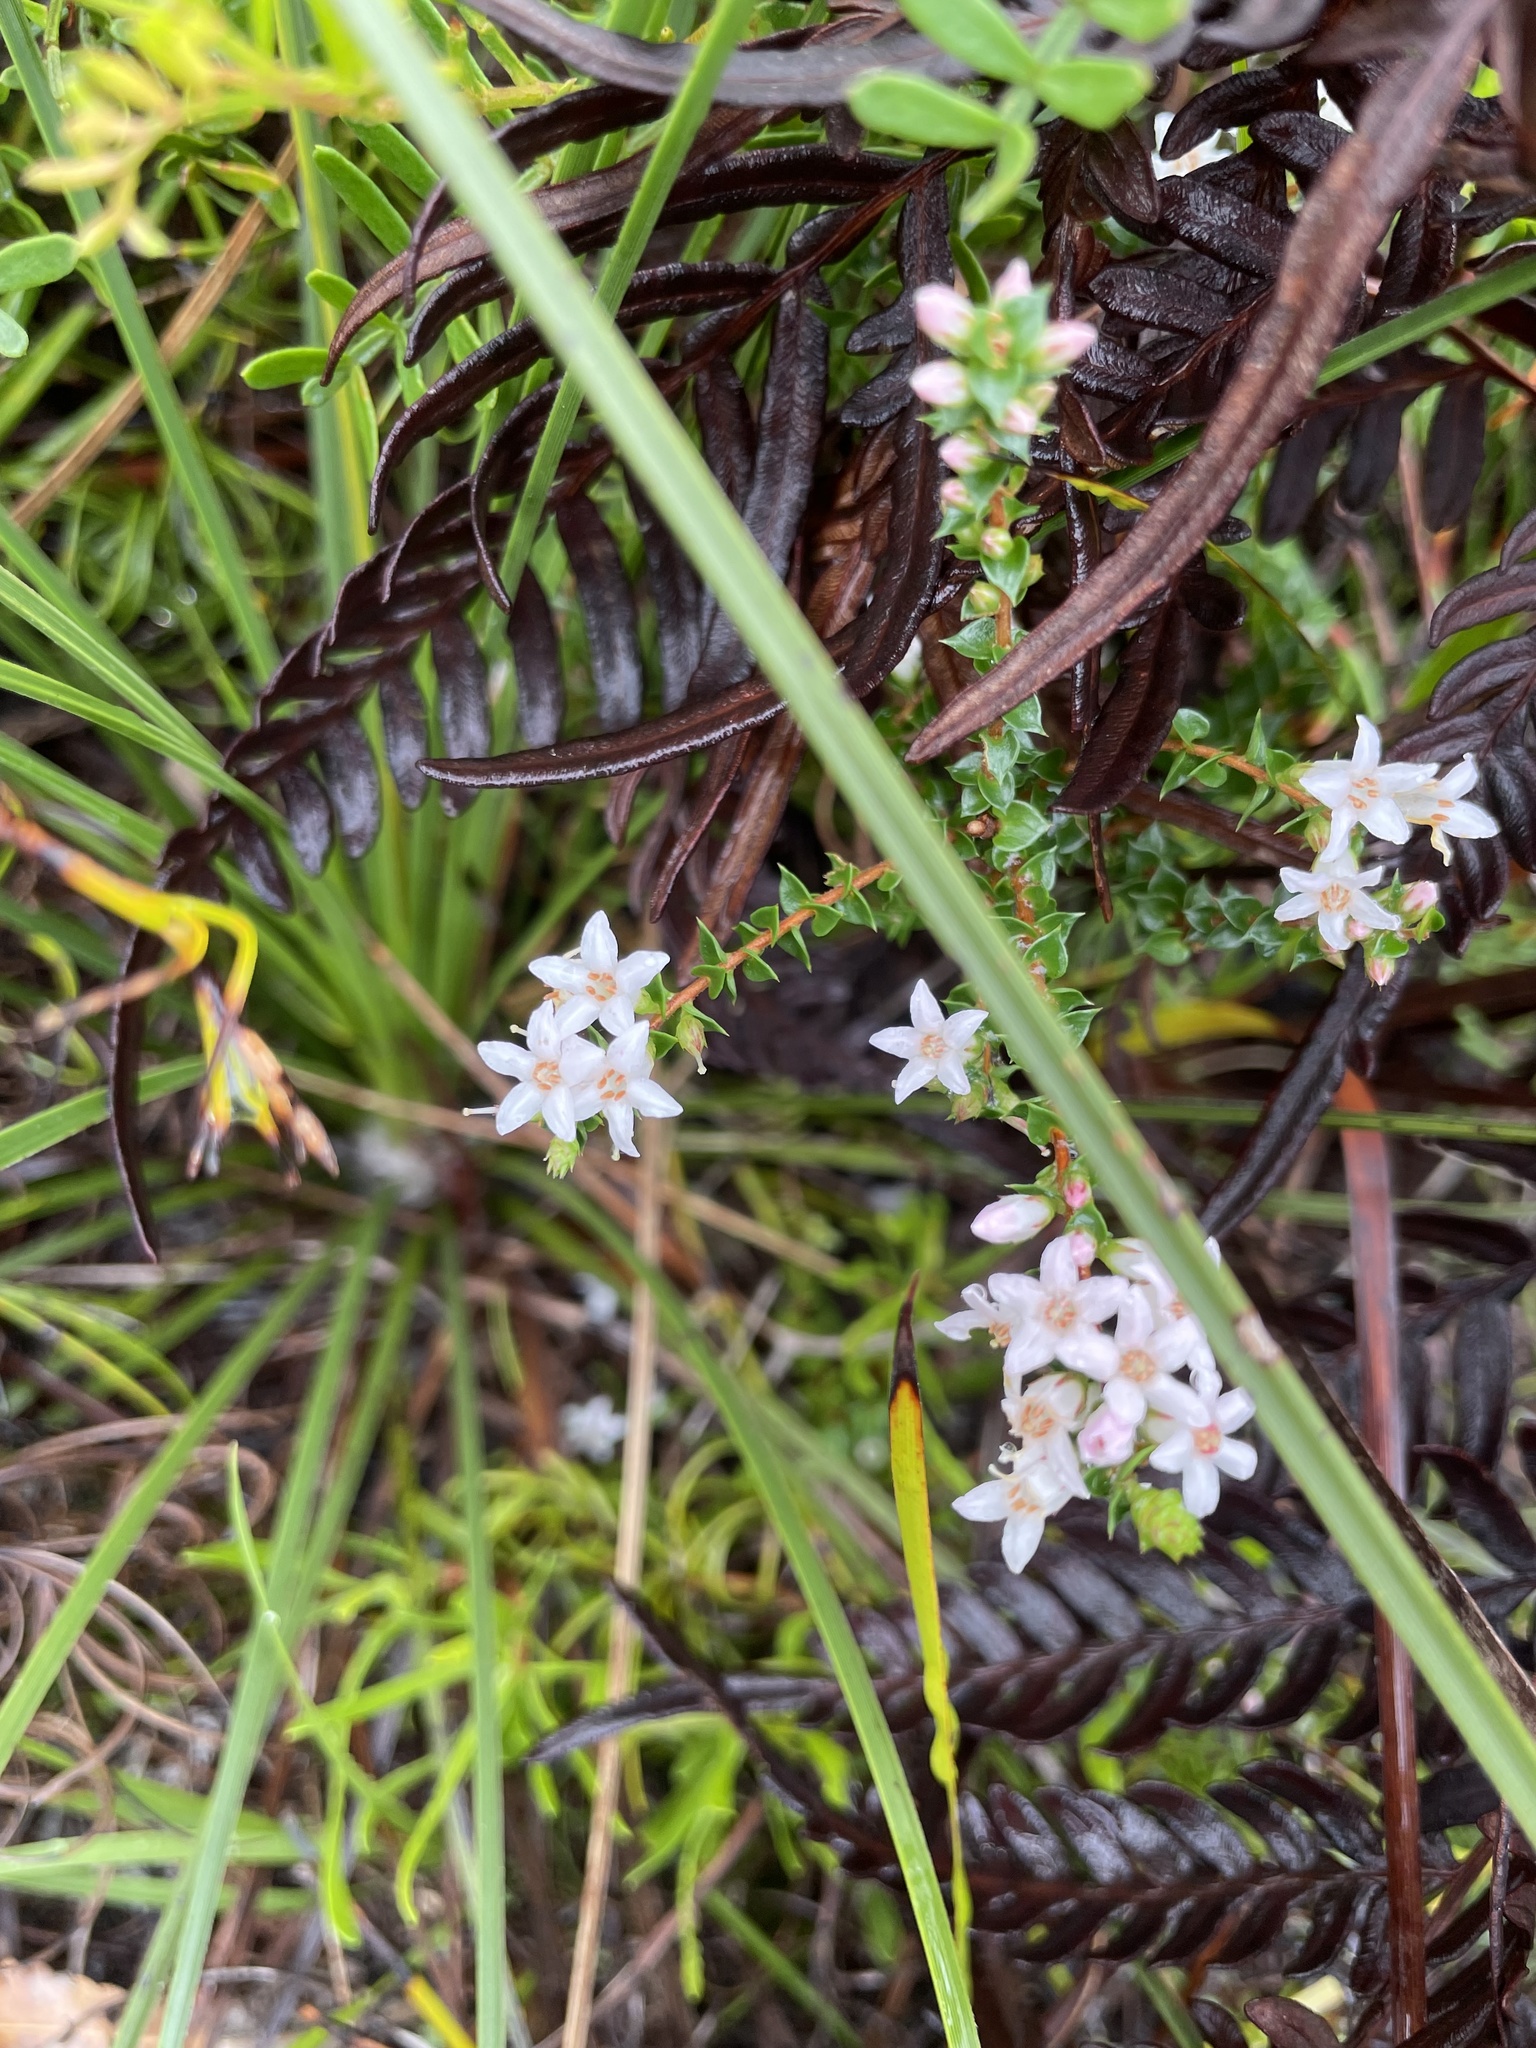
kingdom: Plantae
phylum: Tracheophyta
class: Magnoliopsida
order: Ericales
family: Ericaceae
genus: Epacris
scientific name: Epacris pulchella
